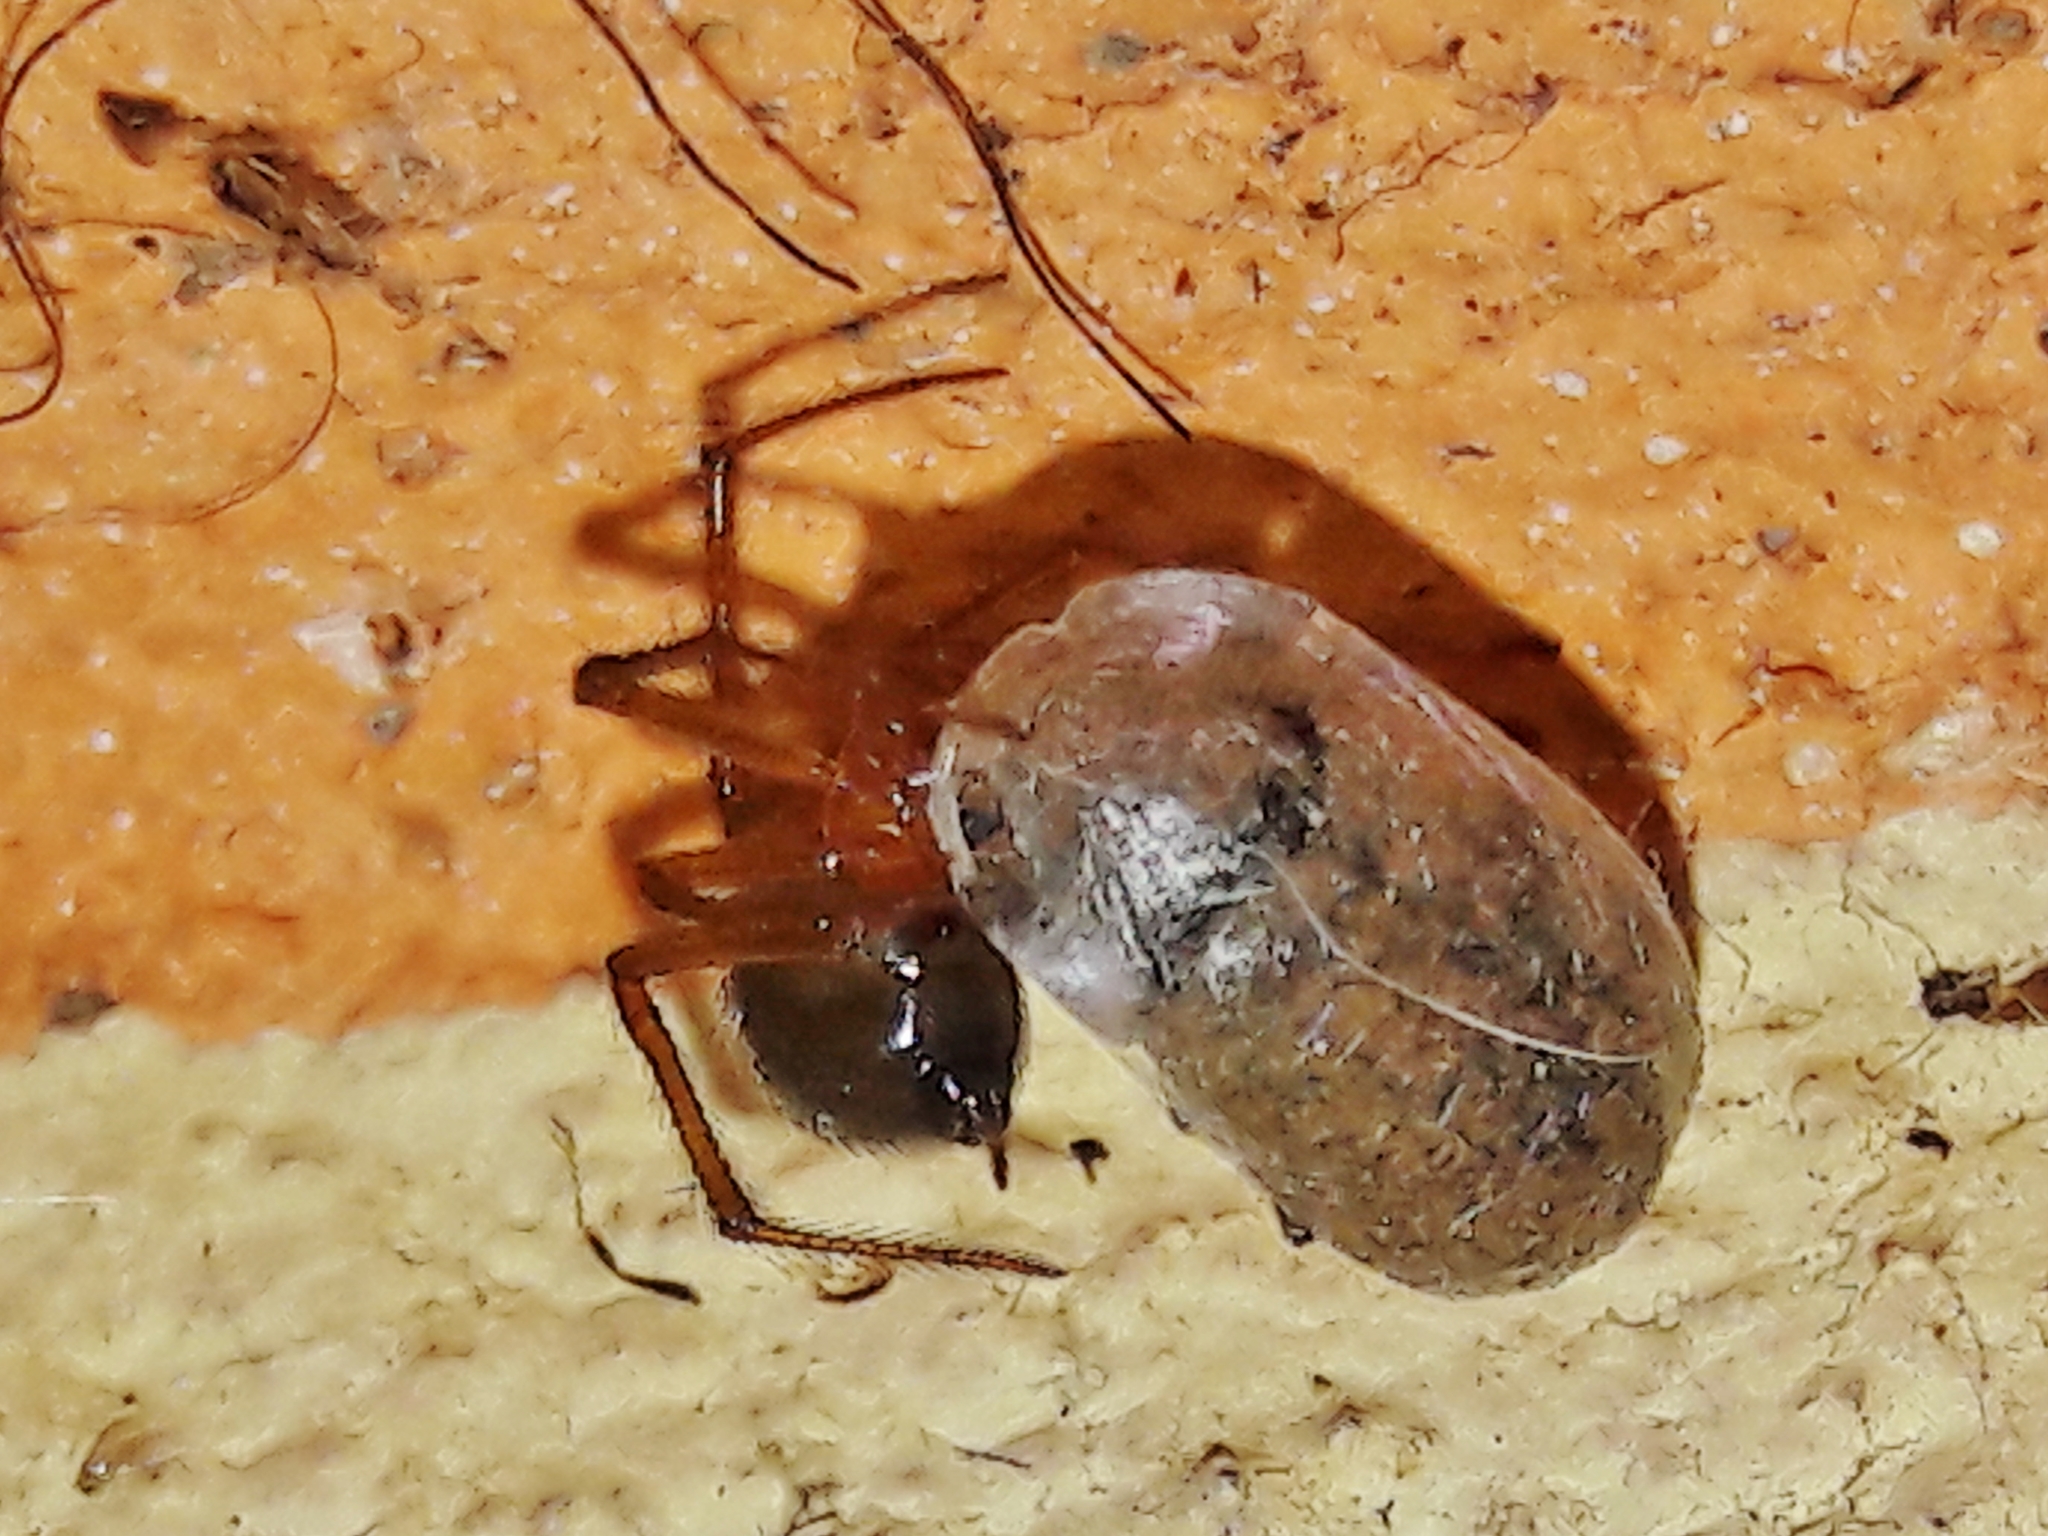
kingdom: Animalia
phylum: Arthropoda
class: Arachnida
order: Araneae
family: Theridiidae
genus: Nesticodes
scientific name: Nesticodes rufipes
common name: Cobweb spiders
